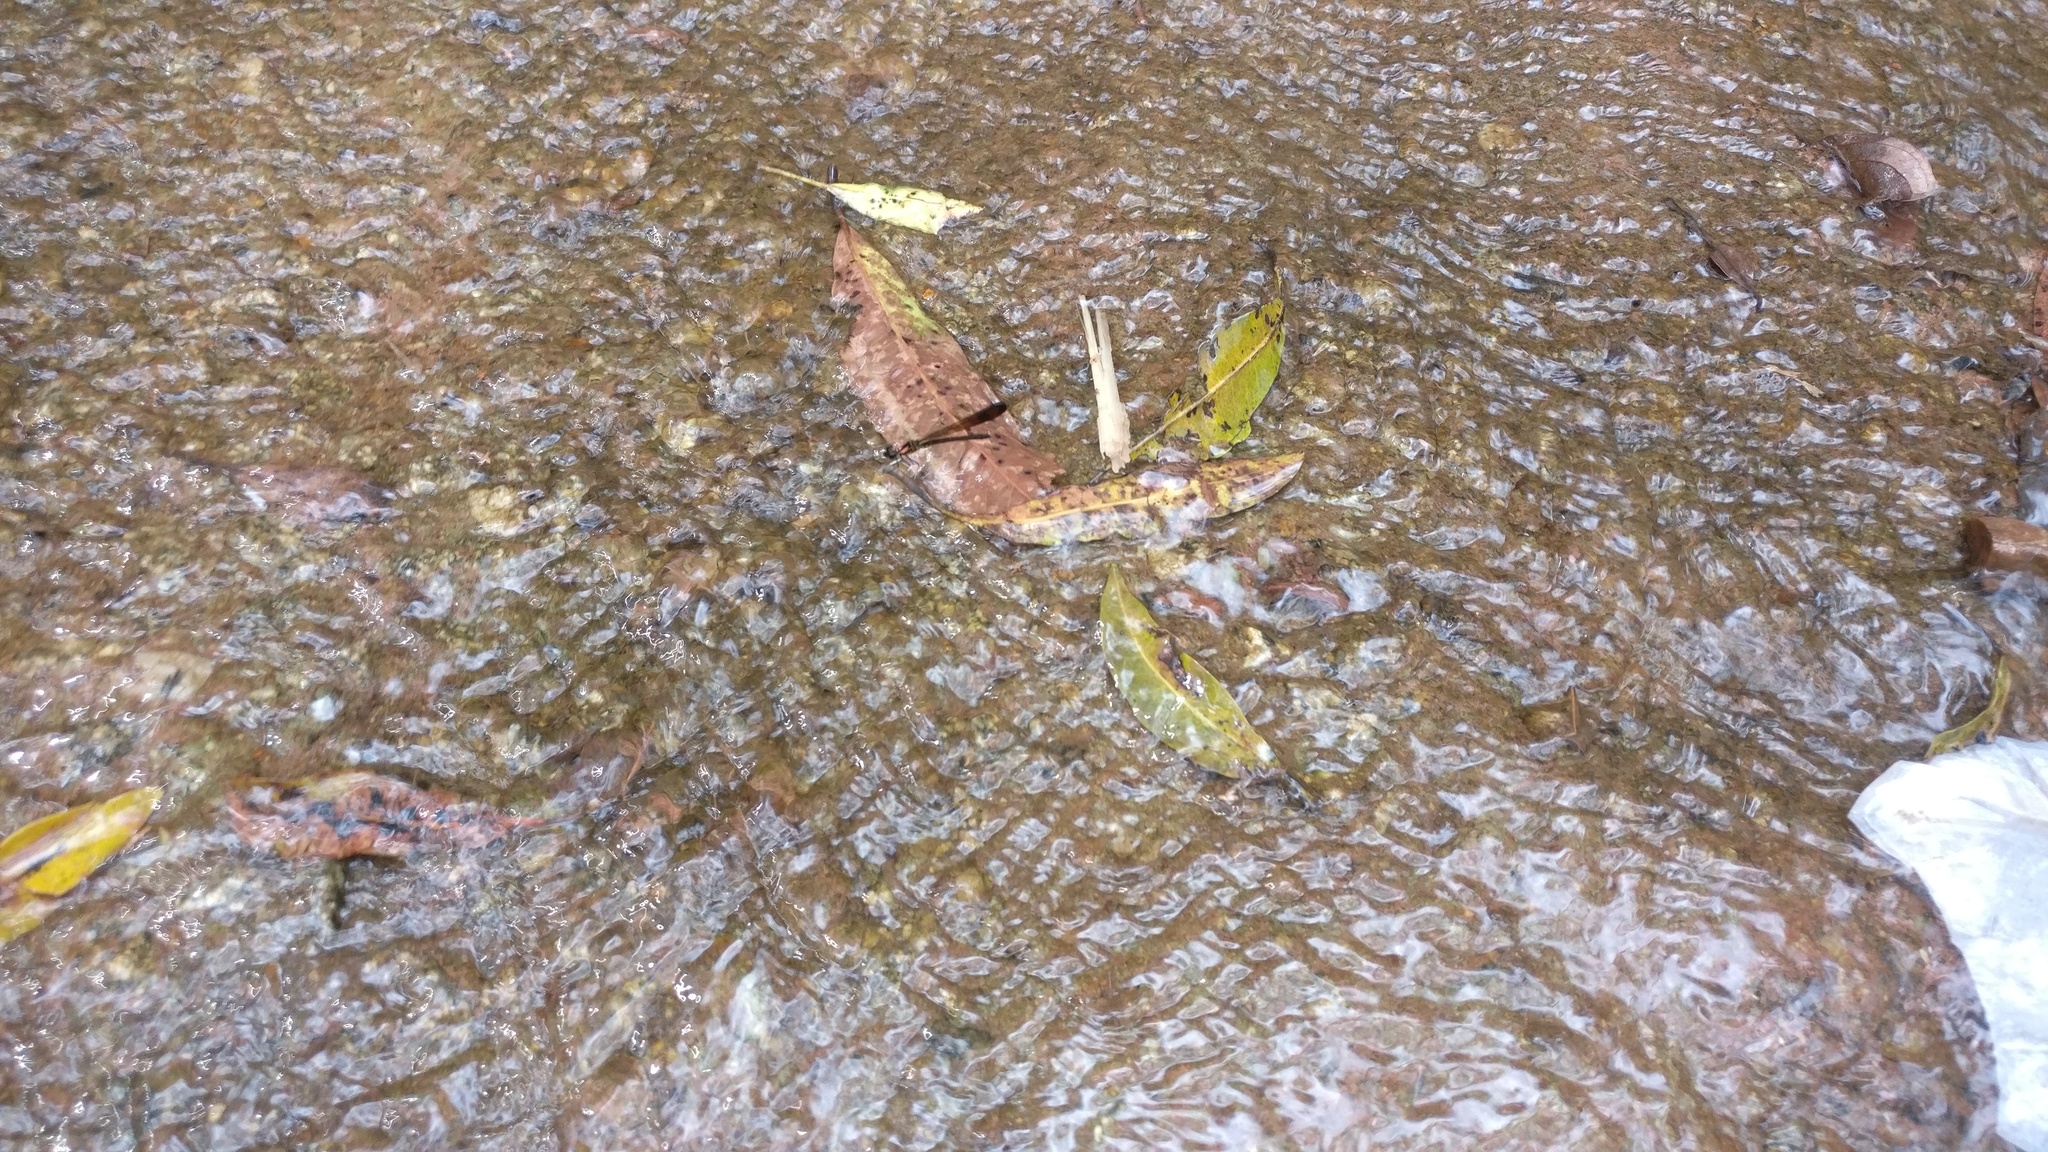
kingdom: Animalia
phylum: Arthropoda
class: Insecta
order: Odonata
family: Chlorocyphidae
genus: Heliocypha
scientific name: Heliocypha bisignata
